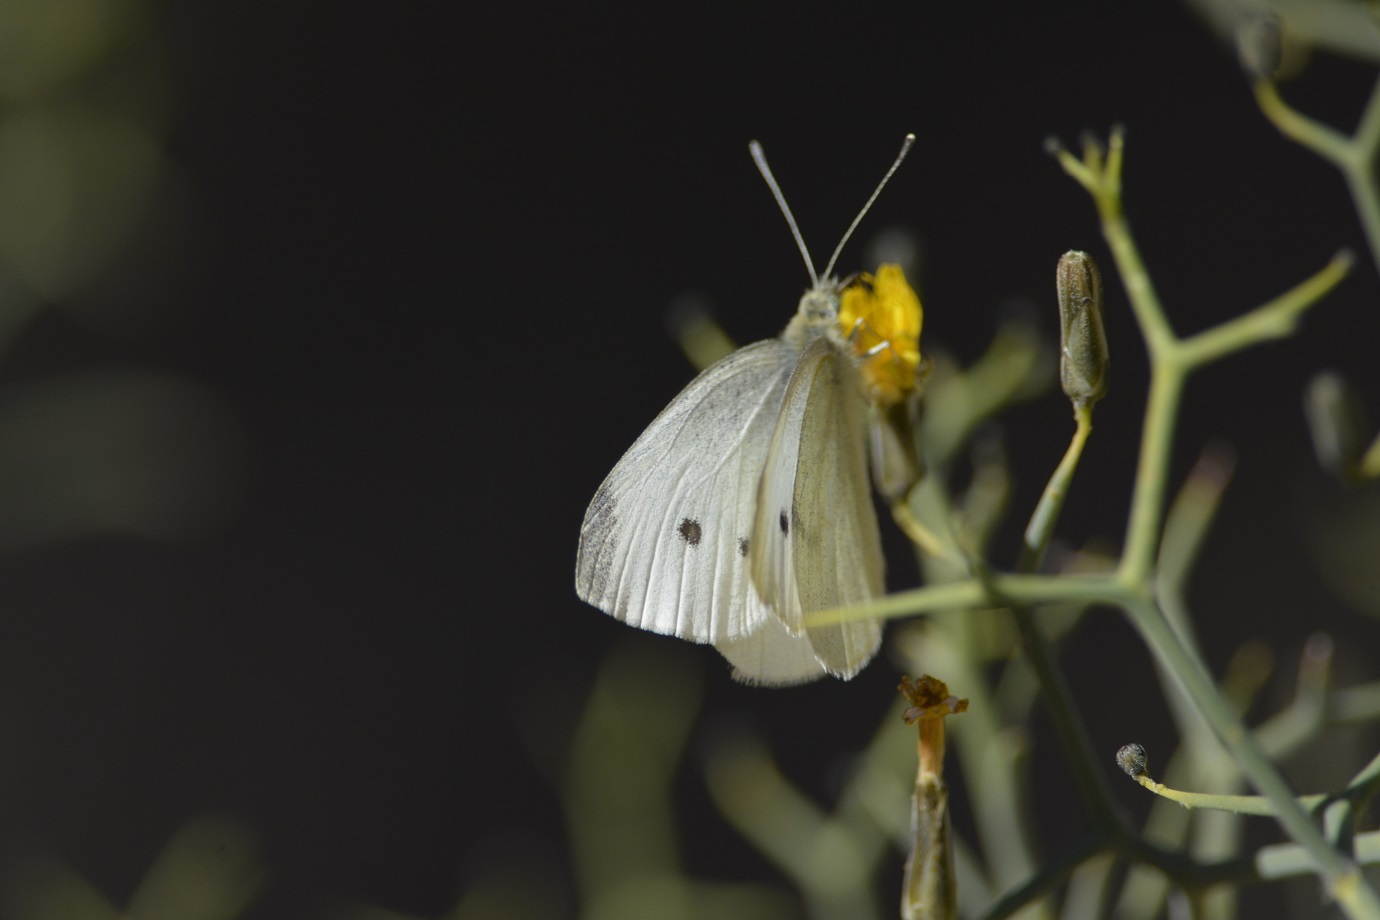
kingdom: Animalia
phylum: Arthropoda
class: Insecta
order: Lepidoptera
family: Pieridae
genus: Pieris
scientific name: Pieris rapae
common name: Small white
